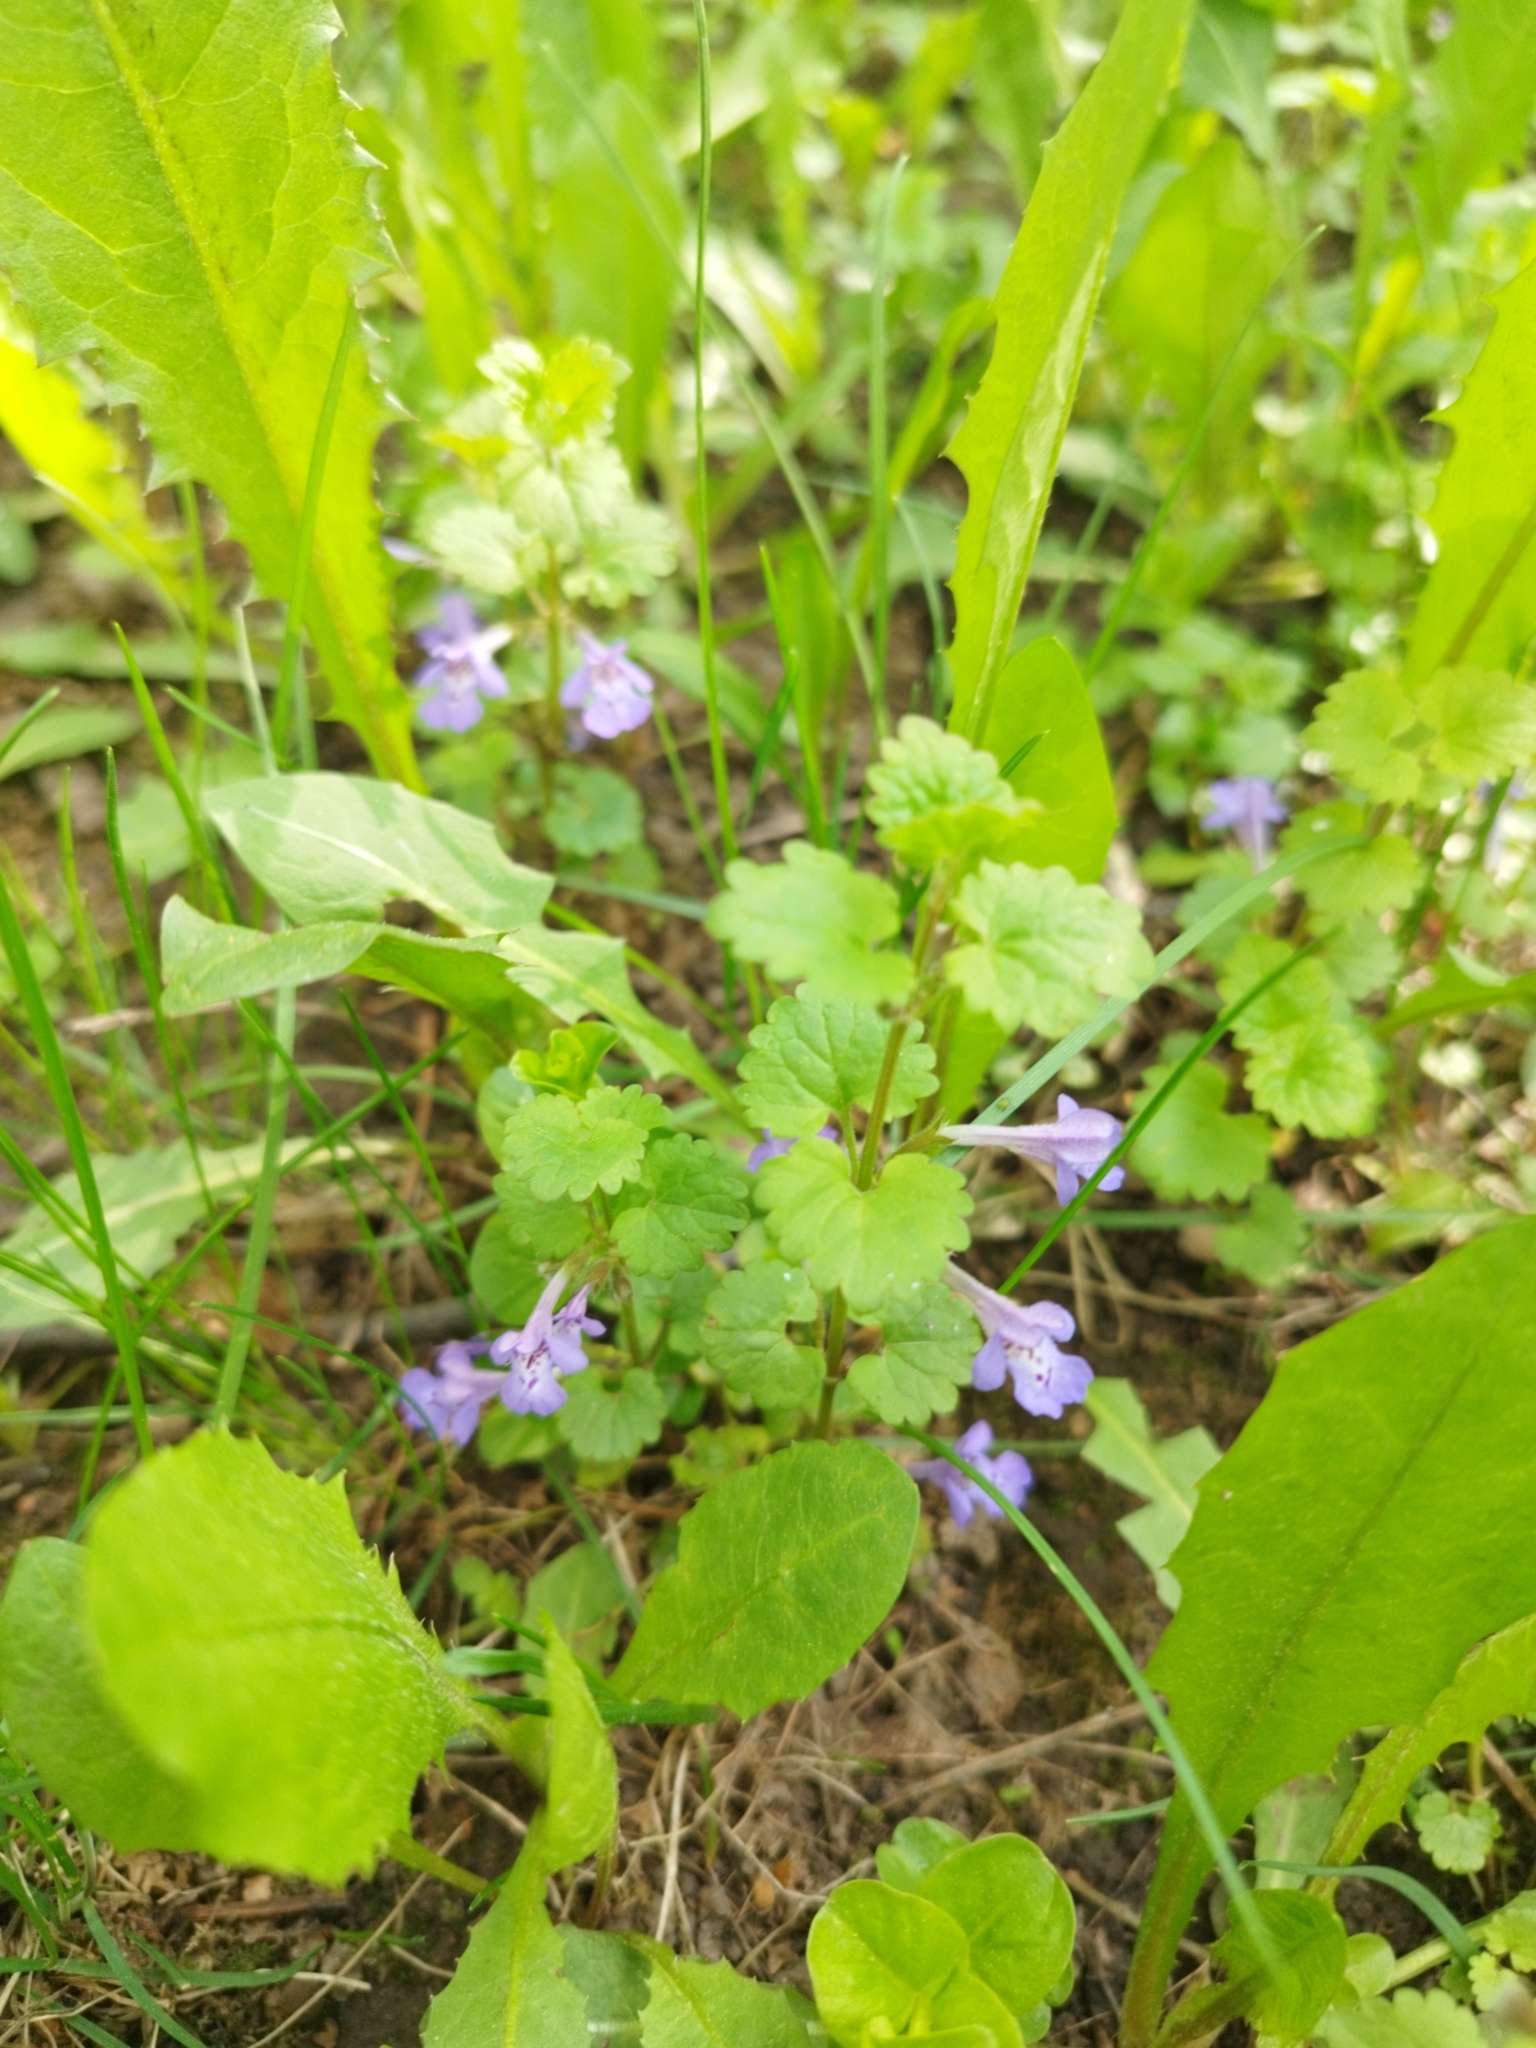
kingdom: Plantae
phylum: Tracheophyta
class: Magnoliopsida
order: Lamiales
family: Lamiaceae
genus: Glechoma
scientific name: Glechoma hederacea
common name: Ground ivy
